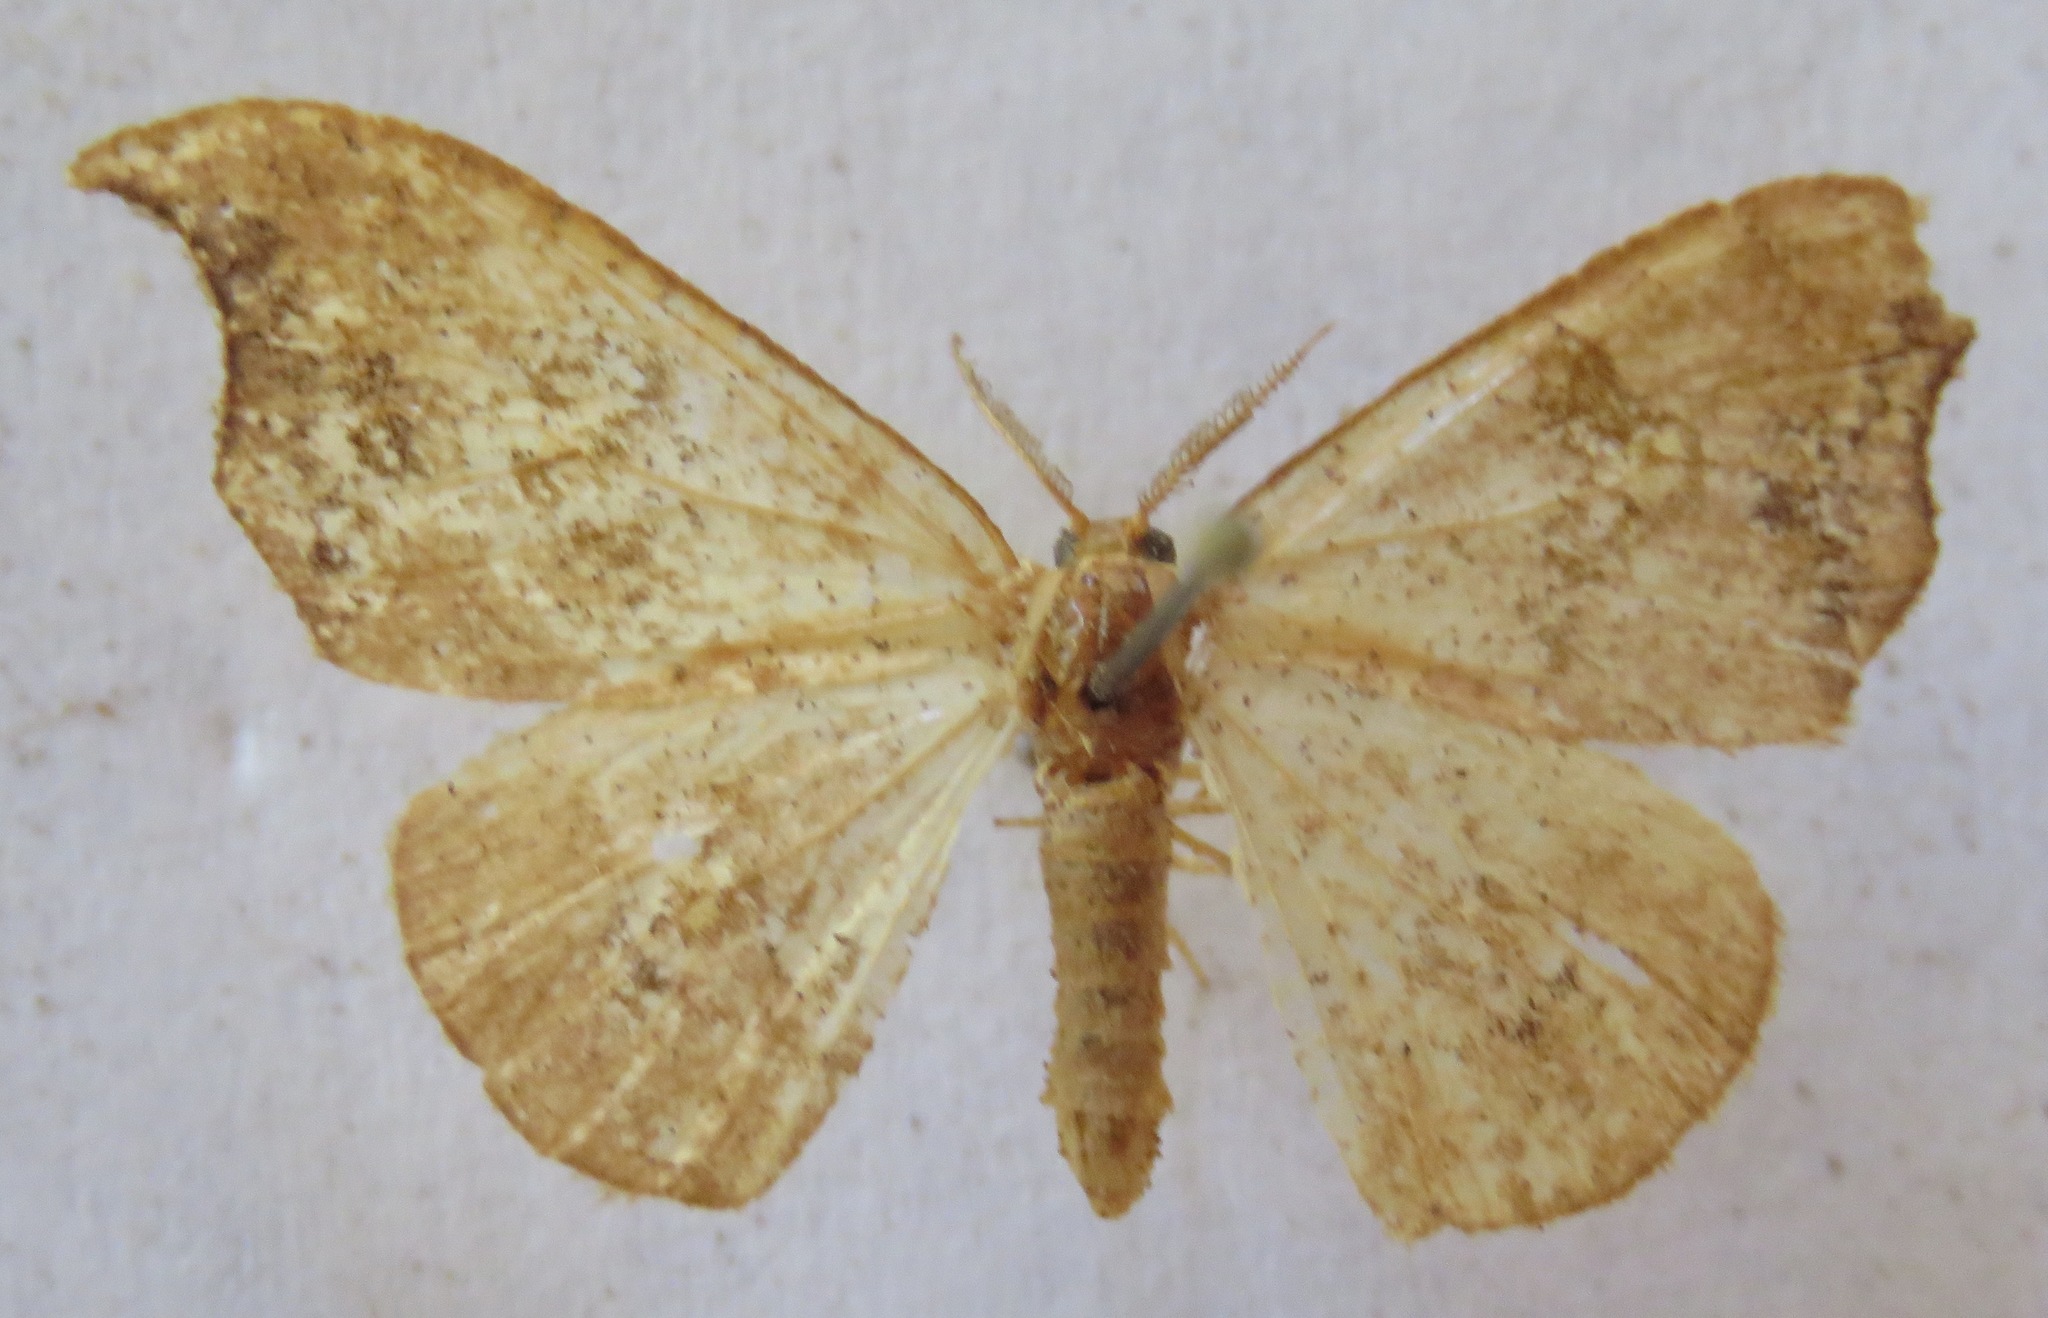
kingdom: Animalia
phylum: Arthropoda
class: Insecta
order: Lepidoptera
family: Drepanidae
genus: Sabra
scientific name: Sabra harpagula
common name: Scarce hook-tip
